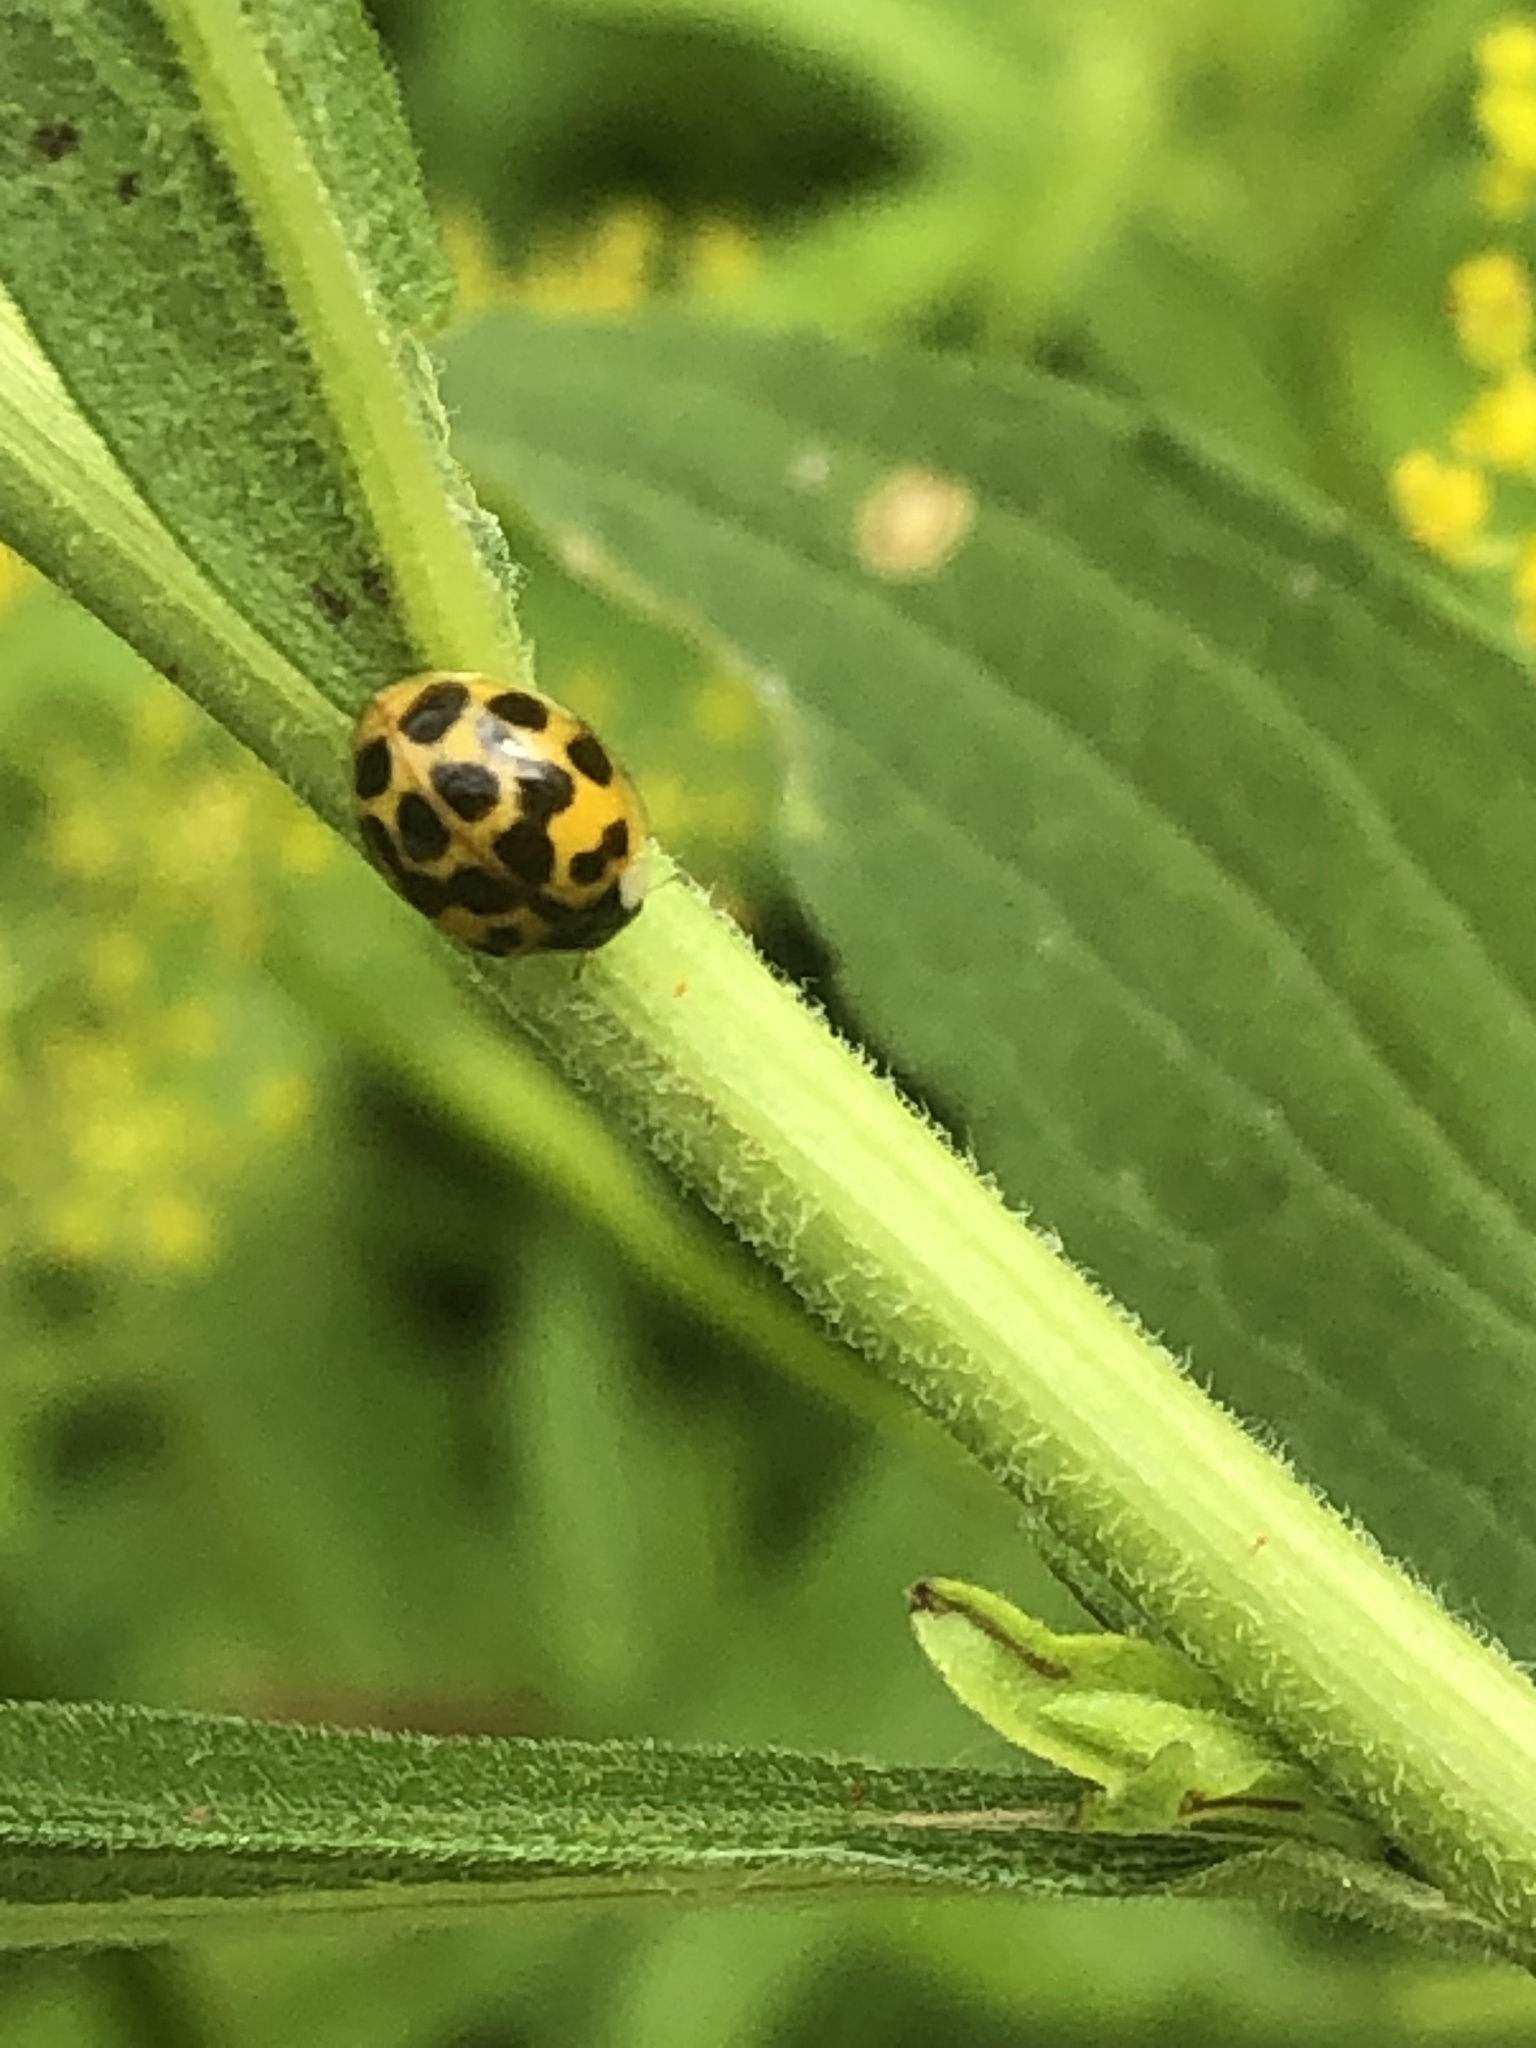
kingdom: Animalia
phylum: Arthropoda
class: Insecta
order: Coleoptera
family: Coccinellidae
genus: Harmonia
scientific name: Harmonia axyridis
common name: Harlequin ladybird
